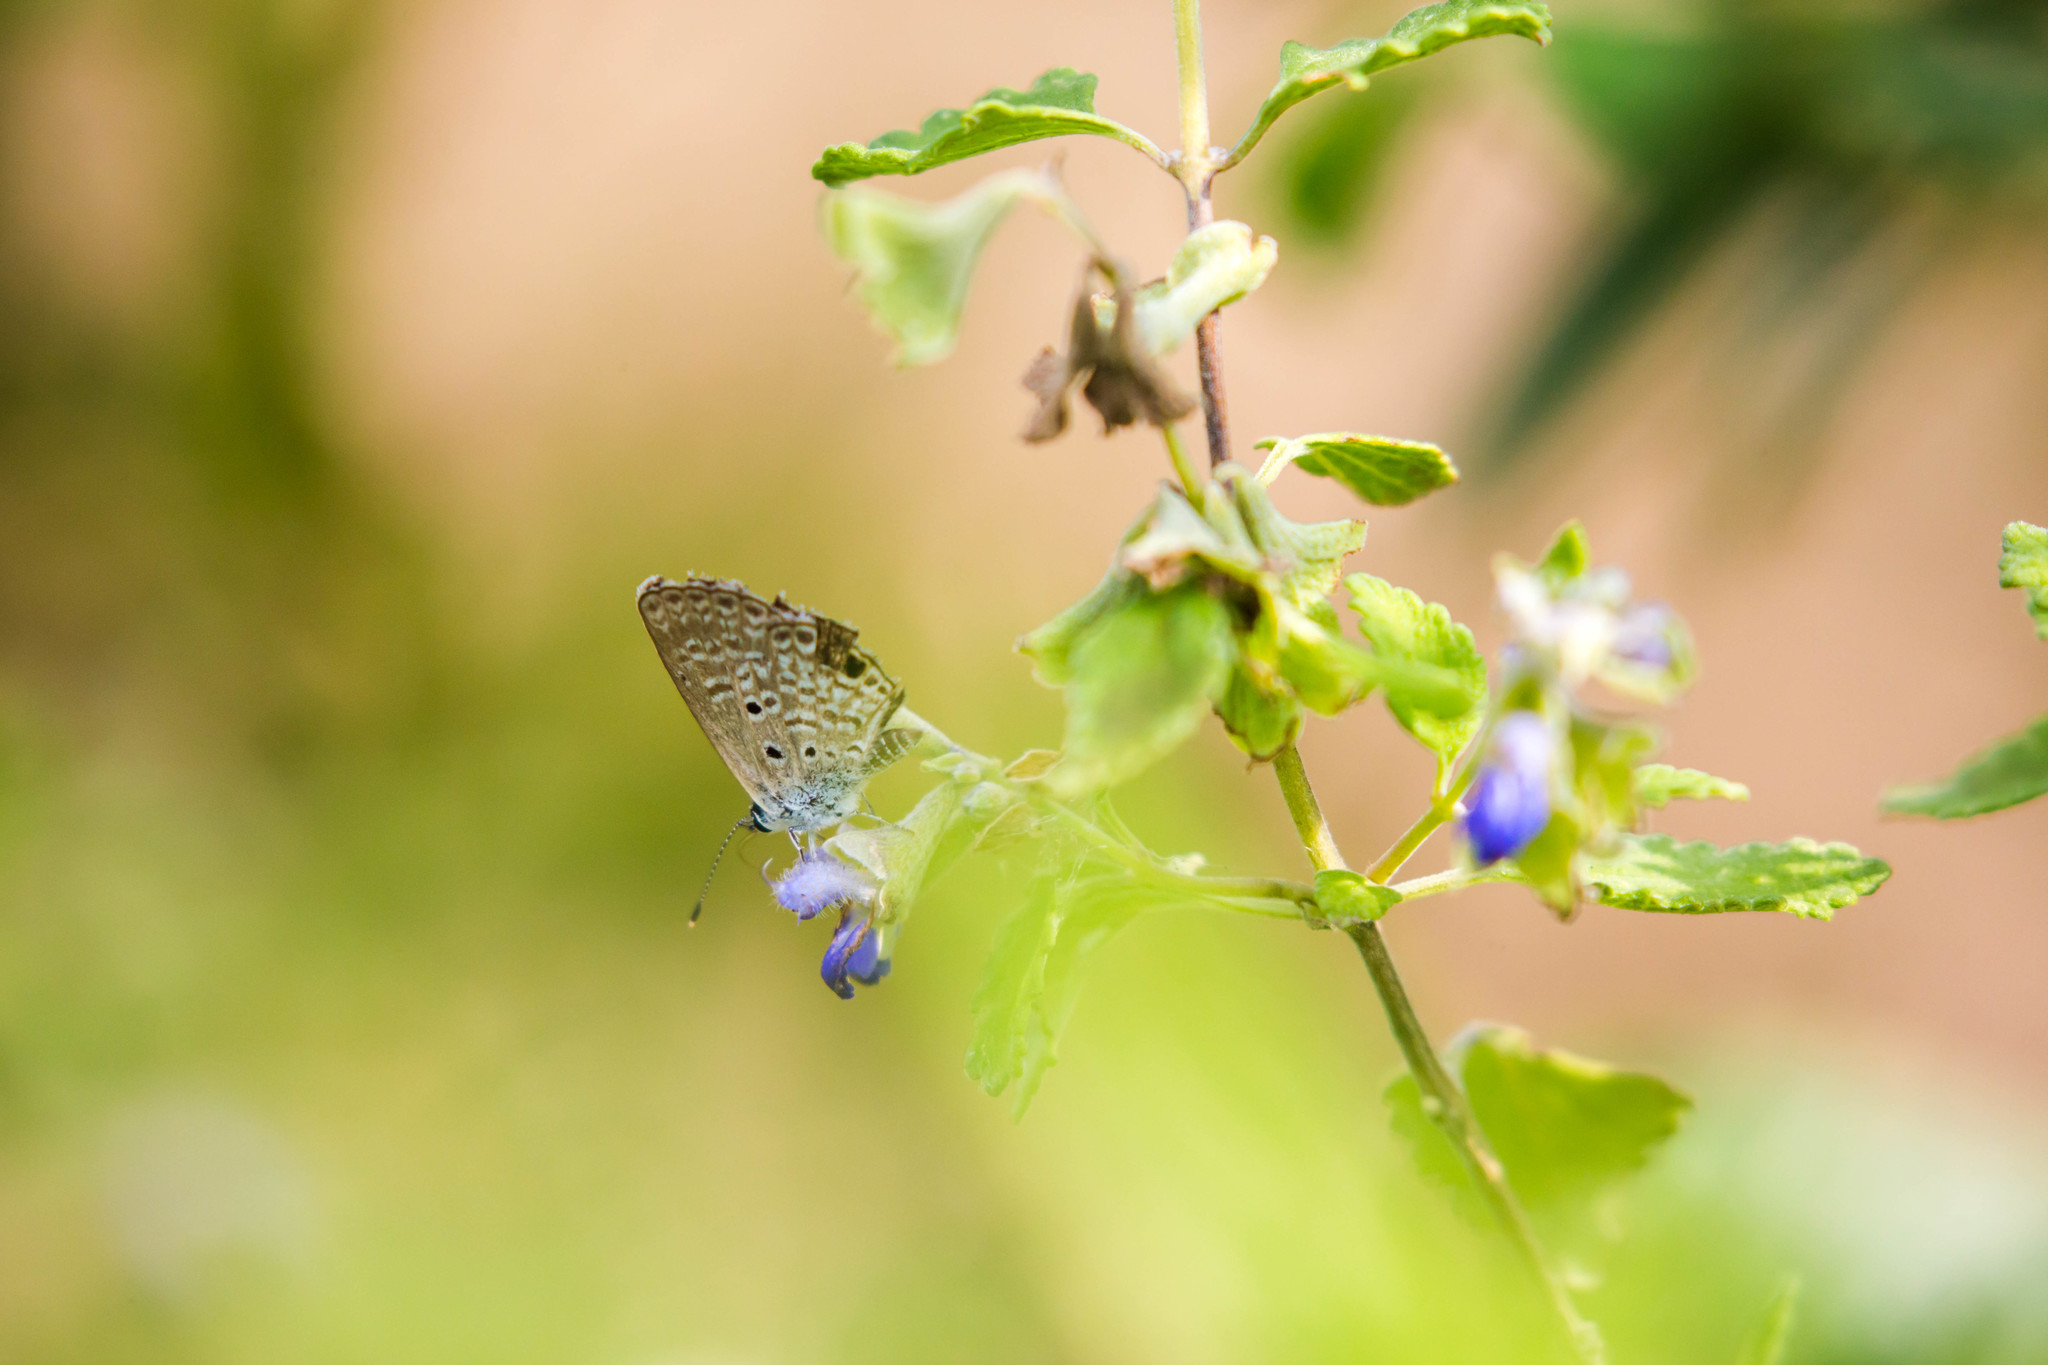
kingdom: Animalia
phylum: Arthropoda
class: Insecta
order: Lepidoptera
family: Lycaenidae
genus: Hemiargus
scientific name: Hemiargus ceraunus
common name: Ceraunus blue
